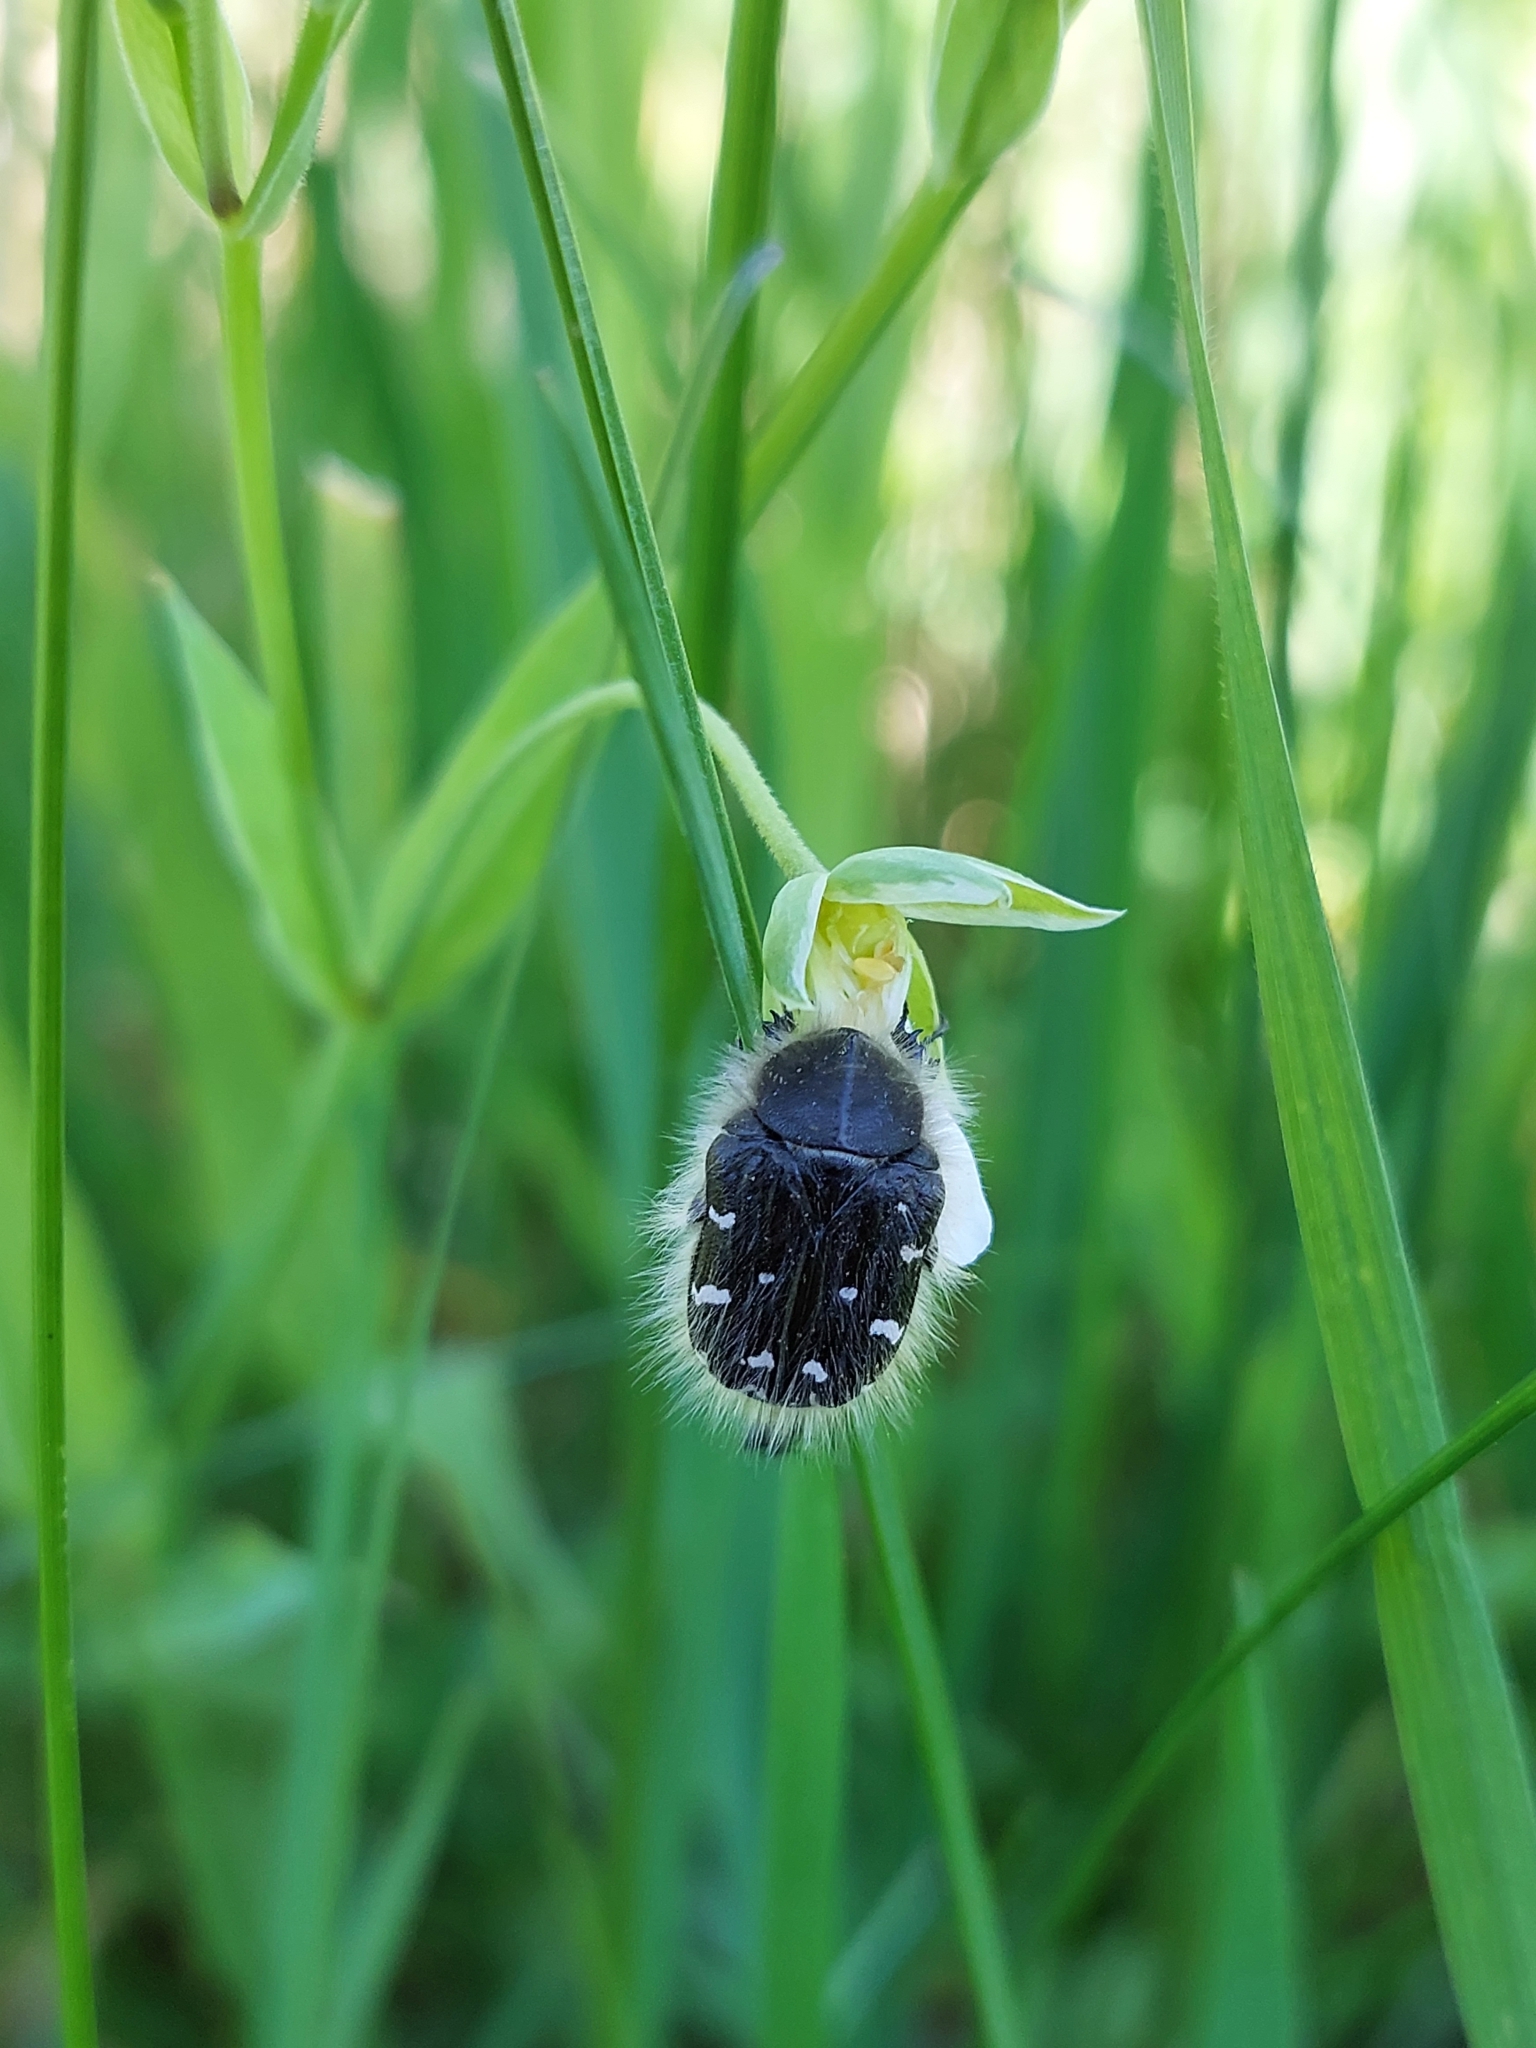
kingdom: Animalia
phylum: Arthropoda
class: Insecta
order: Coleoptera
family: Scarabaeidae
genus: Tropinota
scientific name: Tropinota hirta
